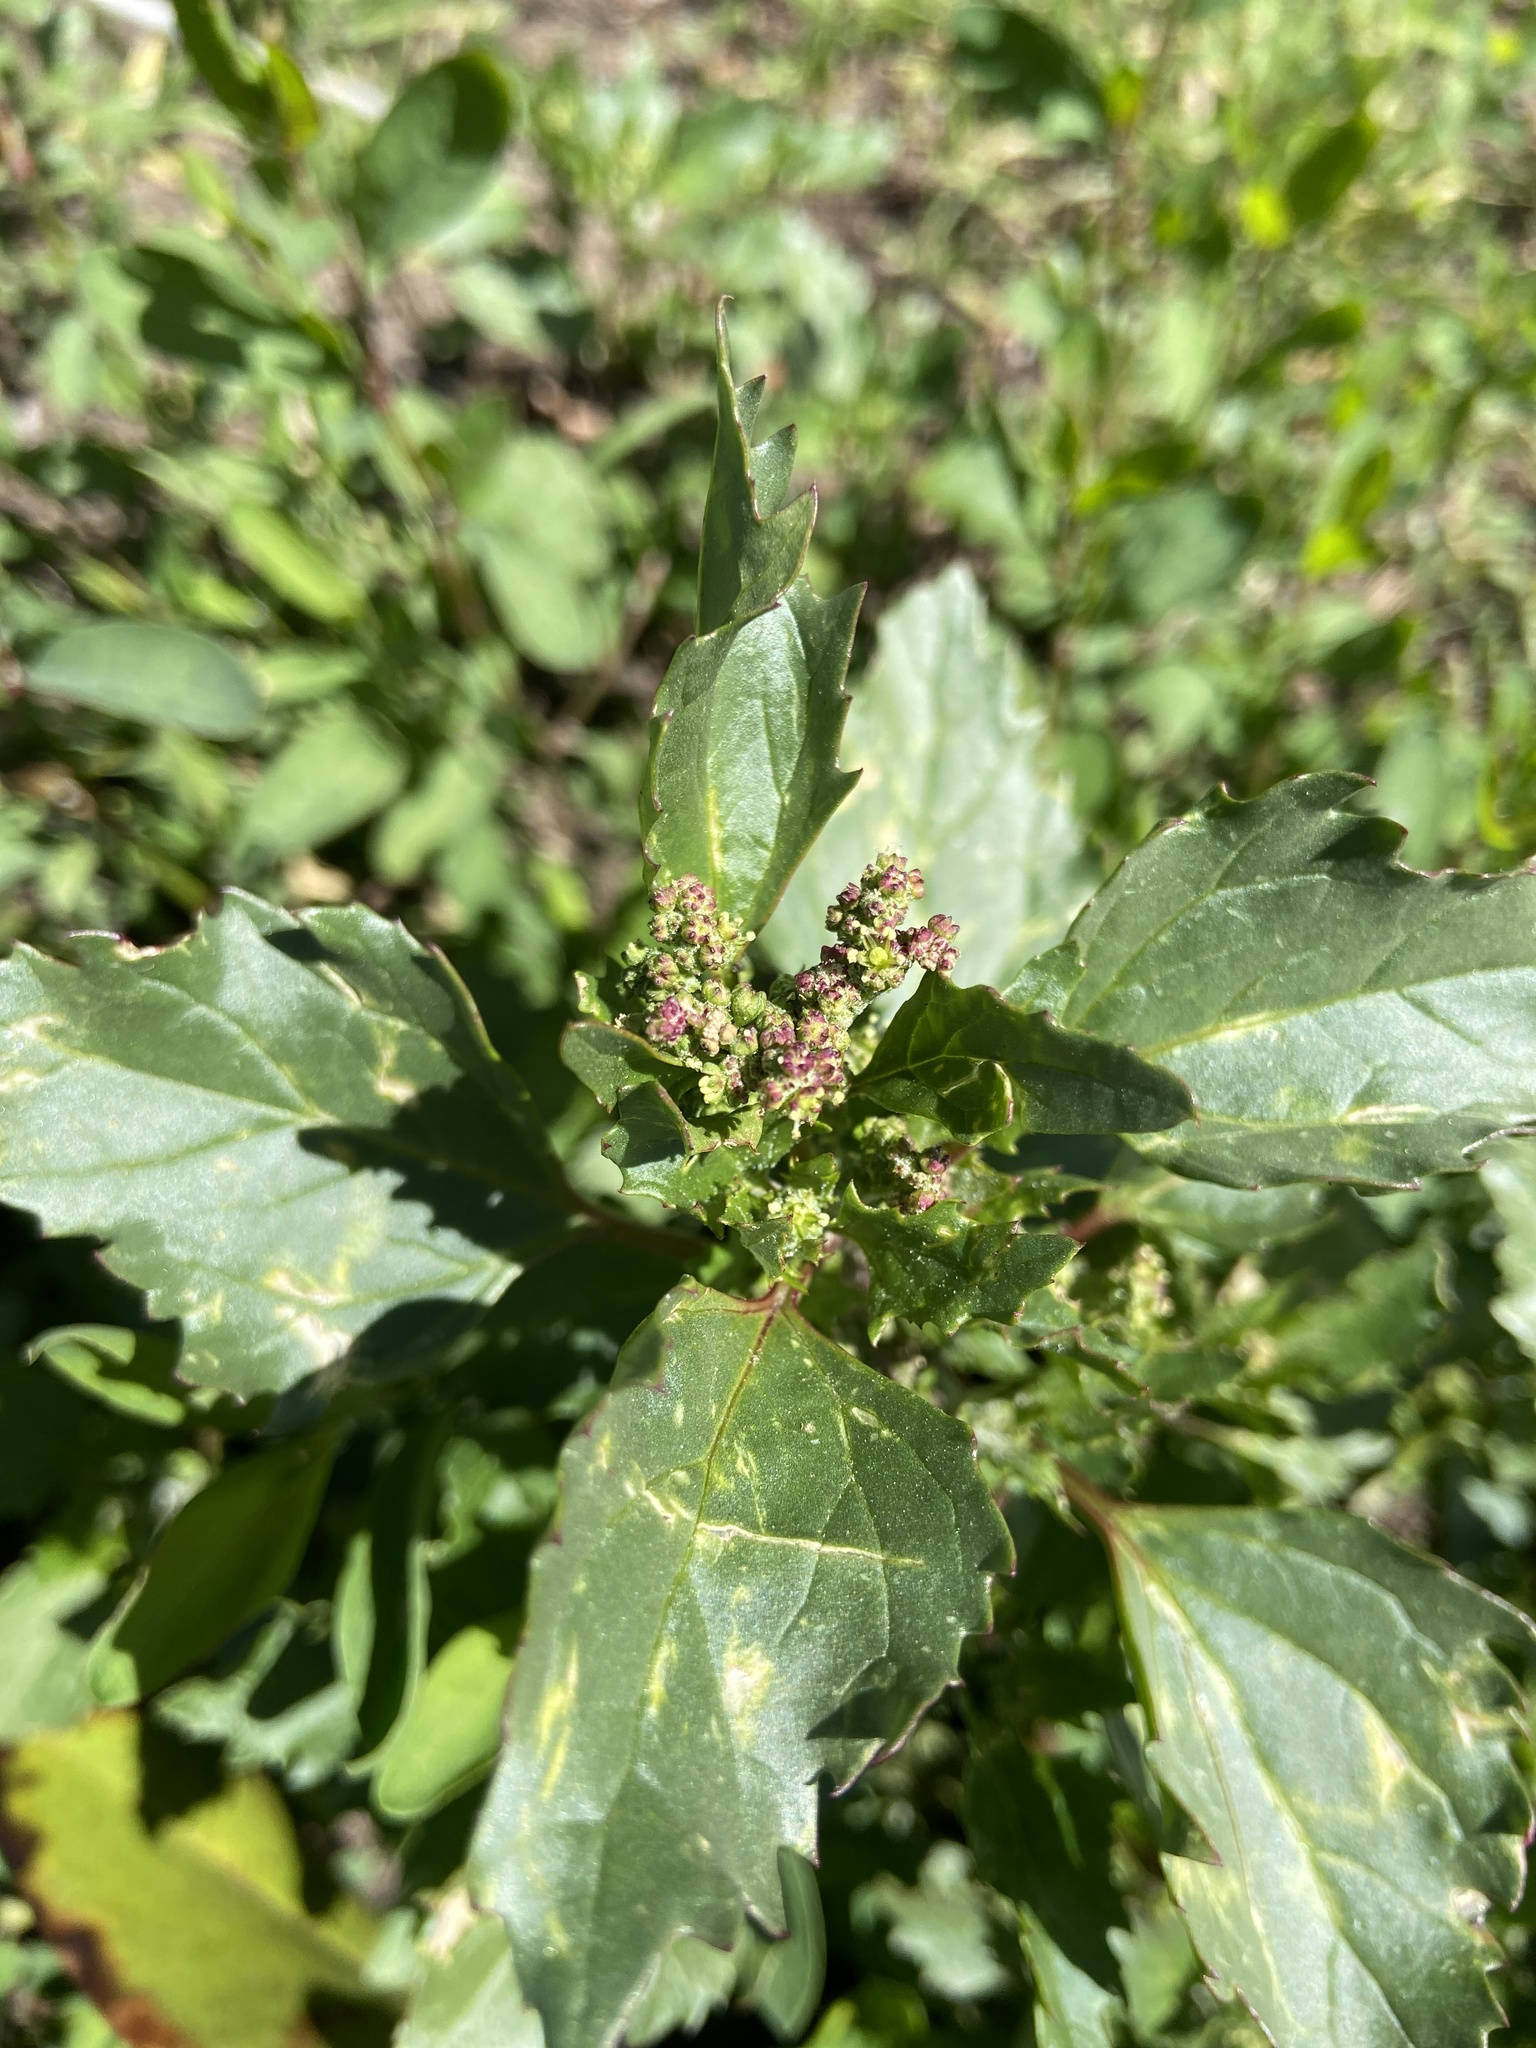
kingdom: Plantae
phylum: Tracheophyta
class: Magnoliopsida
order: Caryophyllales
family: Amaranthaceae
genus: Chenopodiastrum
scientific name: Chenopodiastrum murale
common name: Sowbane
